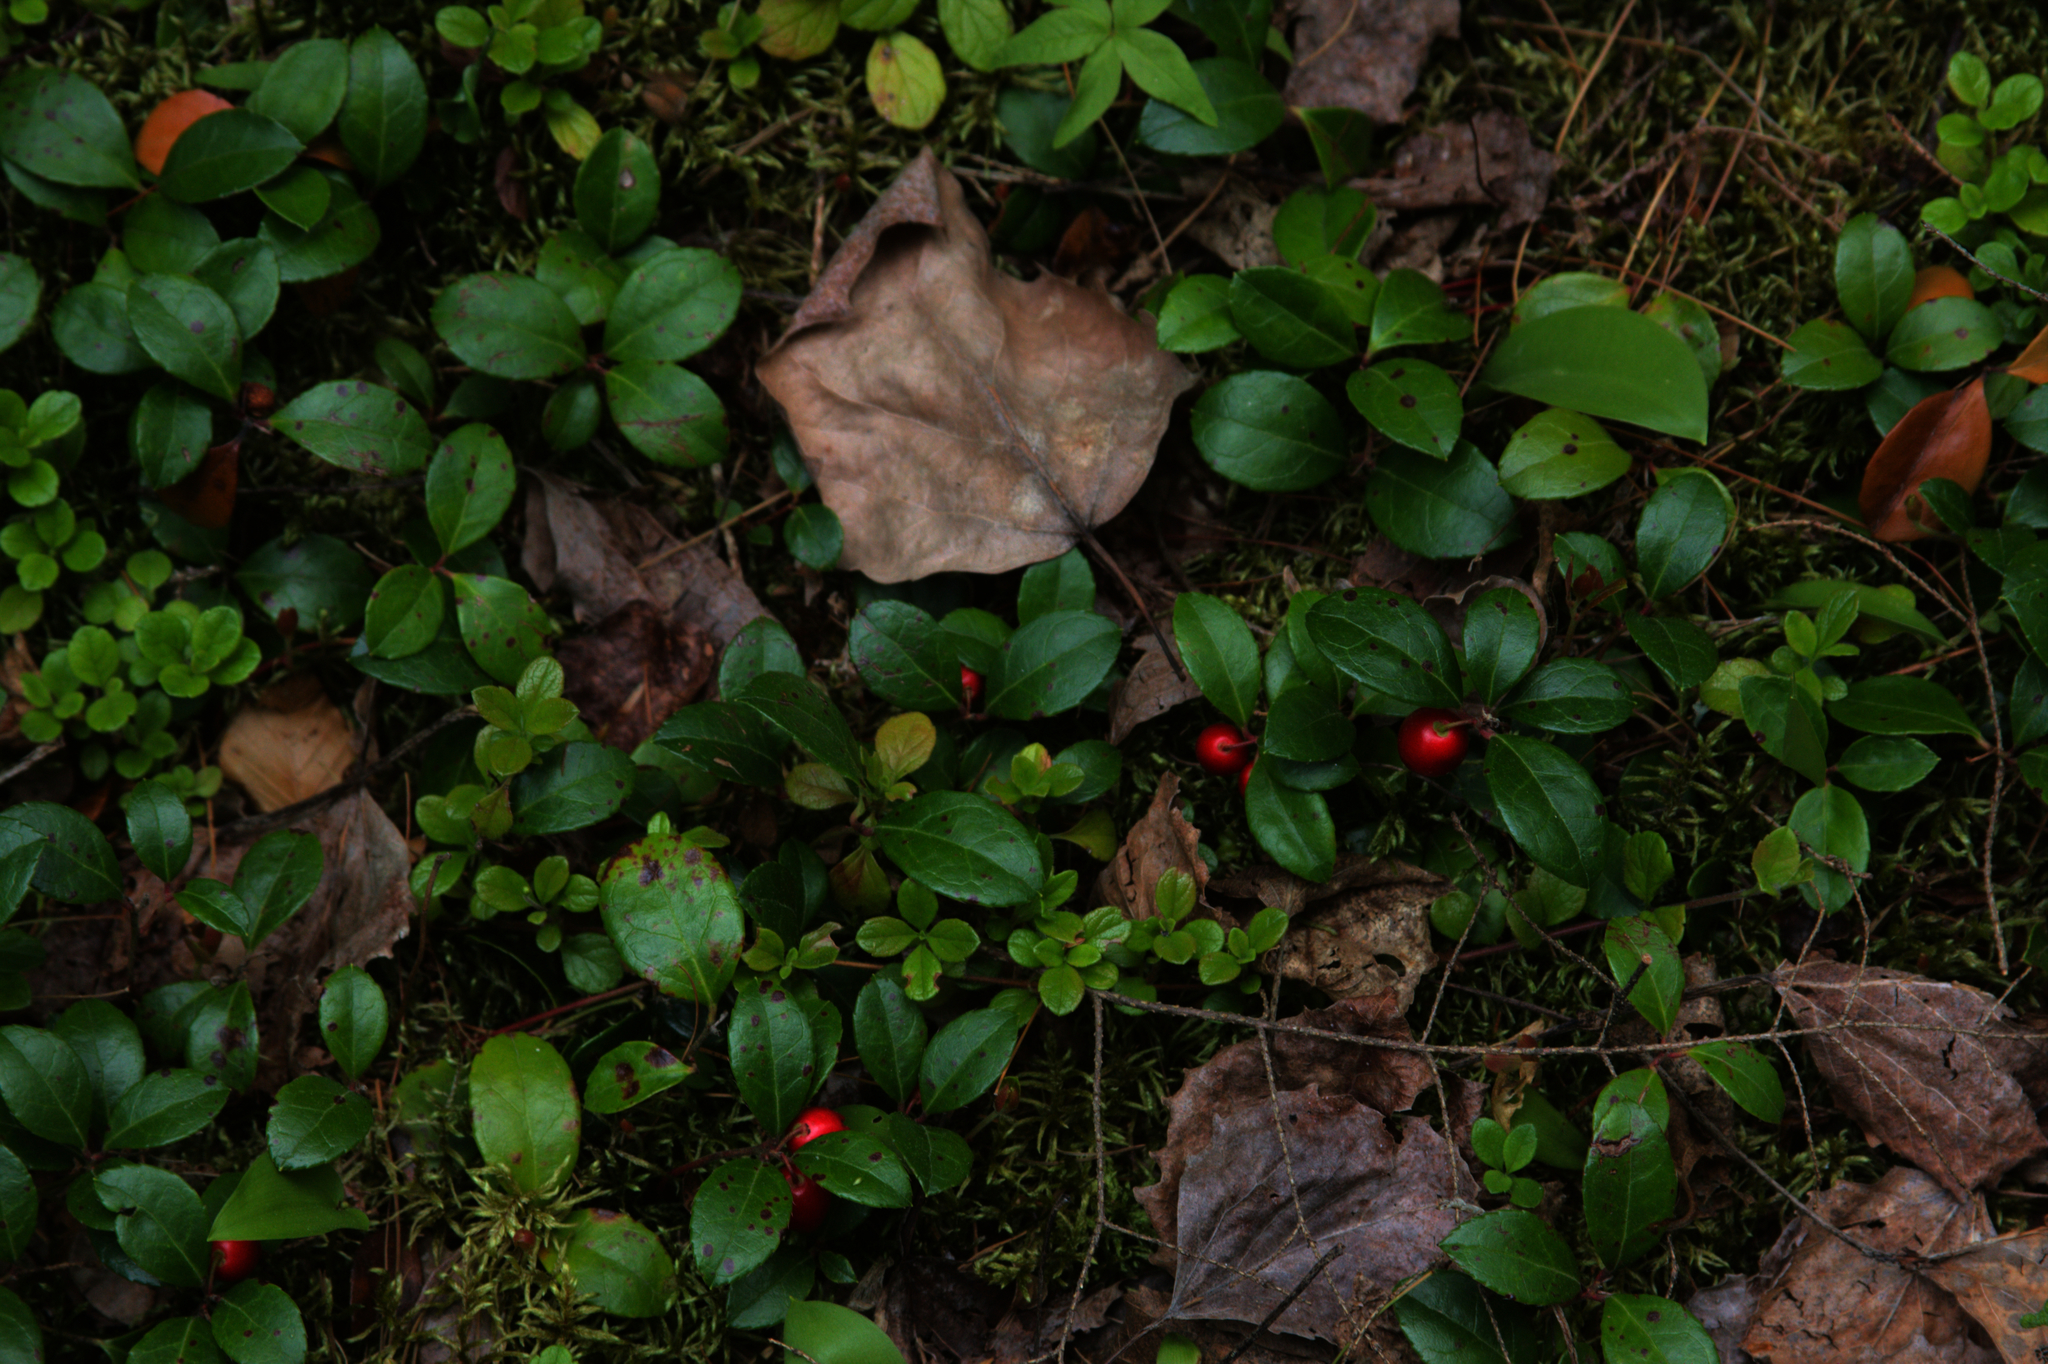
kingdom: Plantae
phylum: Tracheophyta
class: Magnoliopsida
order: Dipsacales
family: Caprifoliaceae
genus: Linnaea
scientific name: Linnaea borealis
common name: Twinflower
